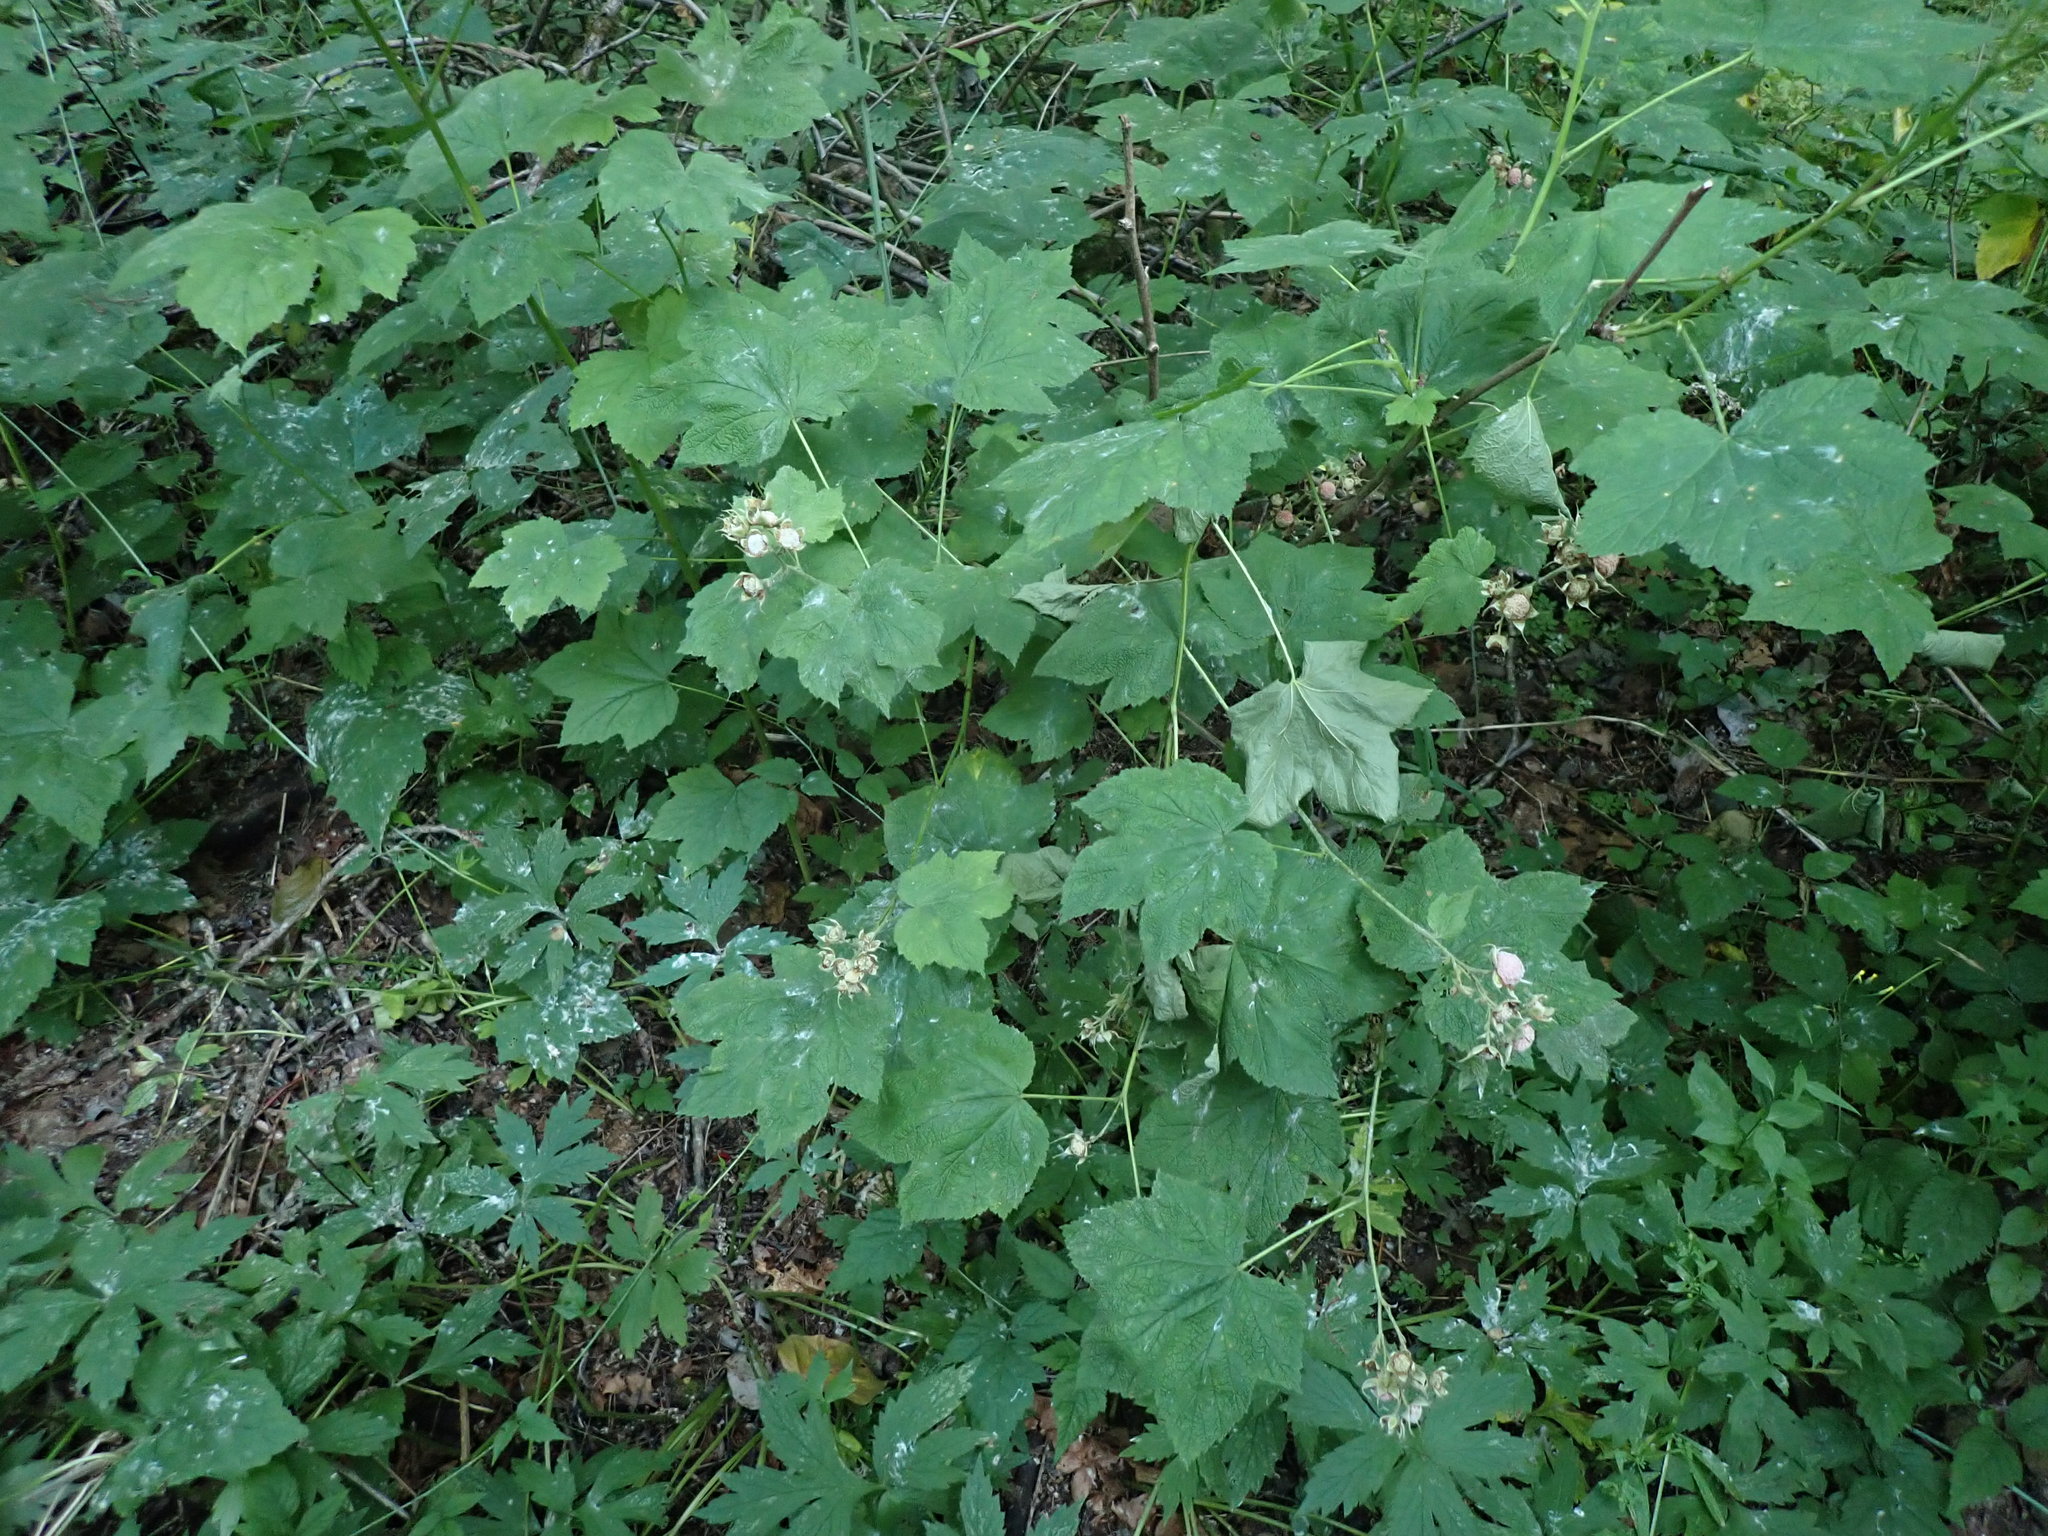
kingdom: Plantae
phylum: Tracheophyta
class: Magnoliopsida
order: Rosales
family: Rosaceae
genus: Rubus
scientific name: Rubus parviflorus
